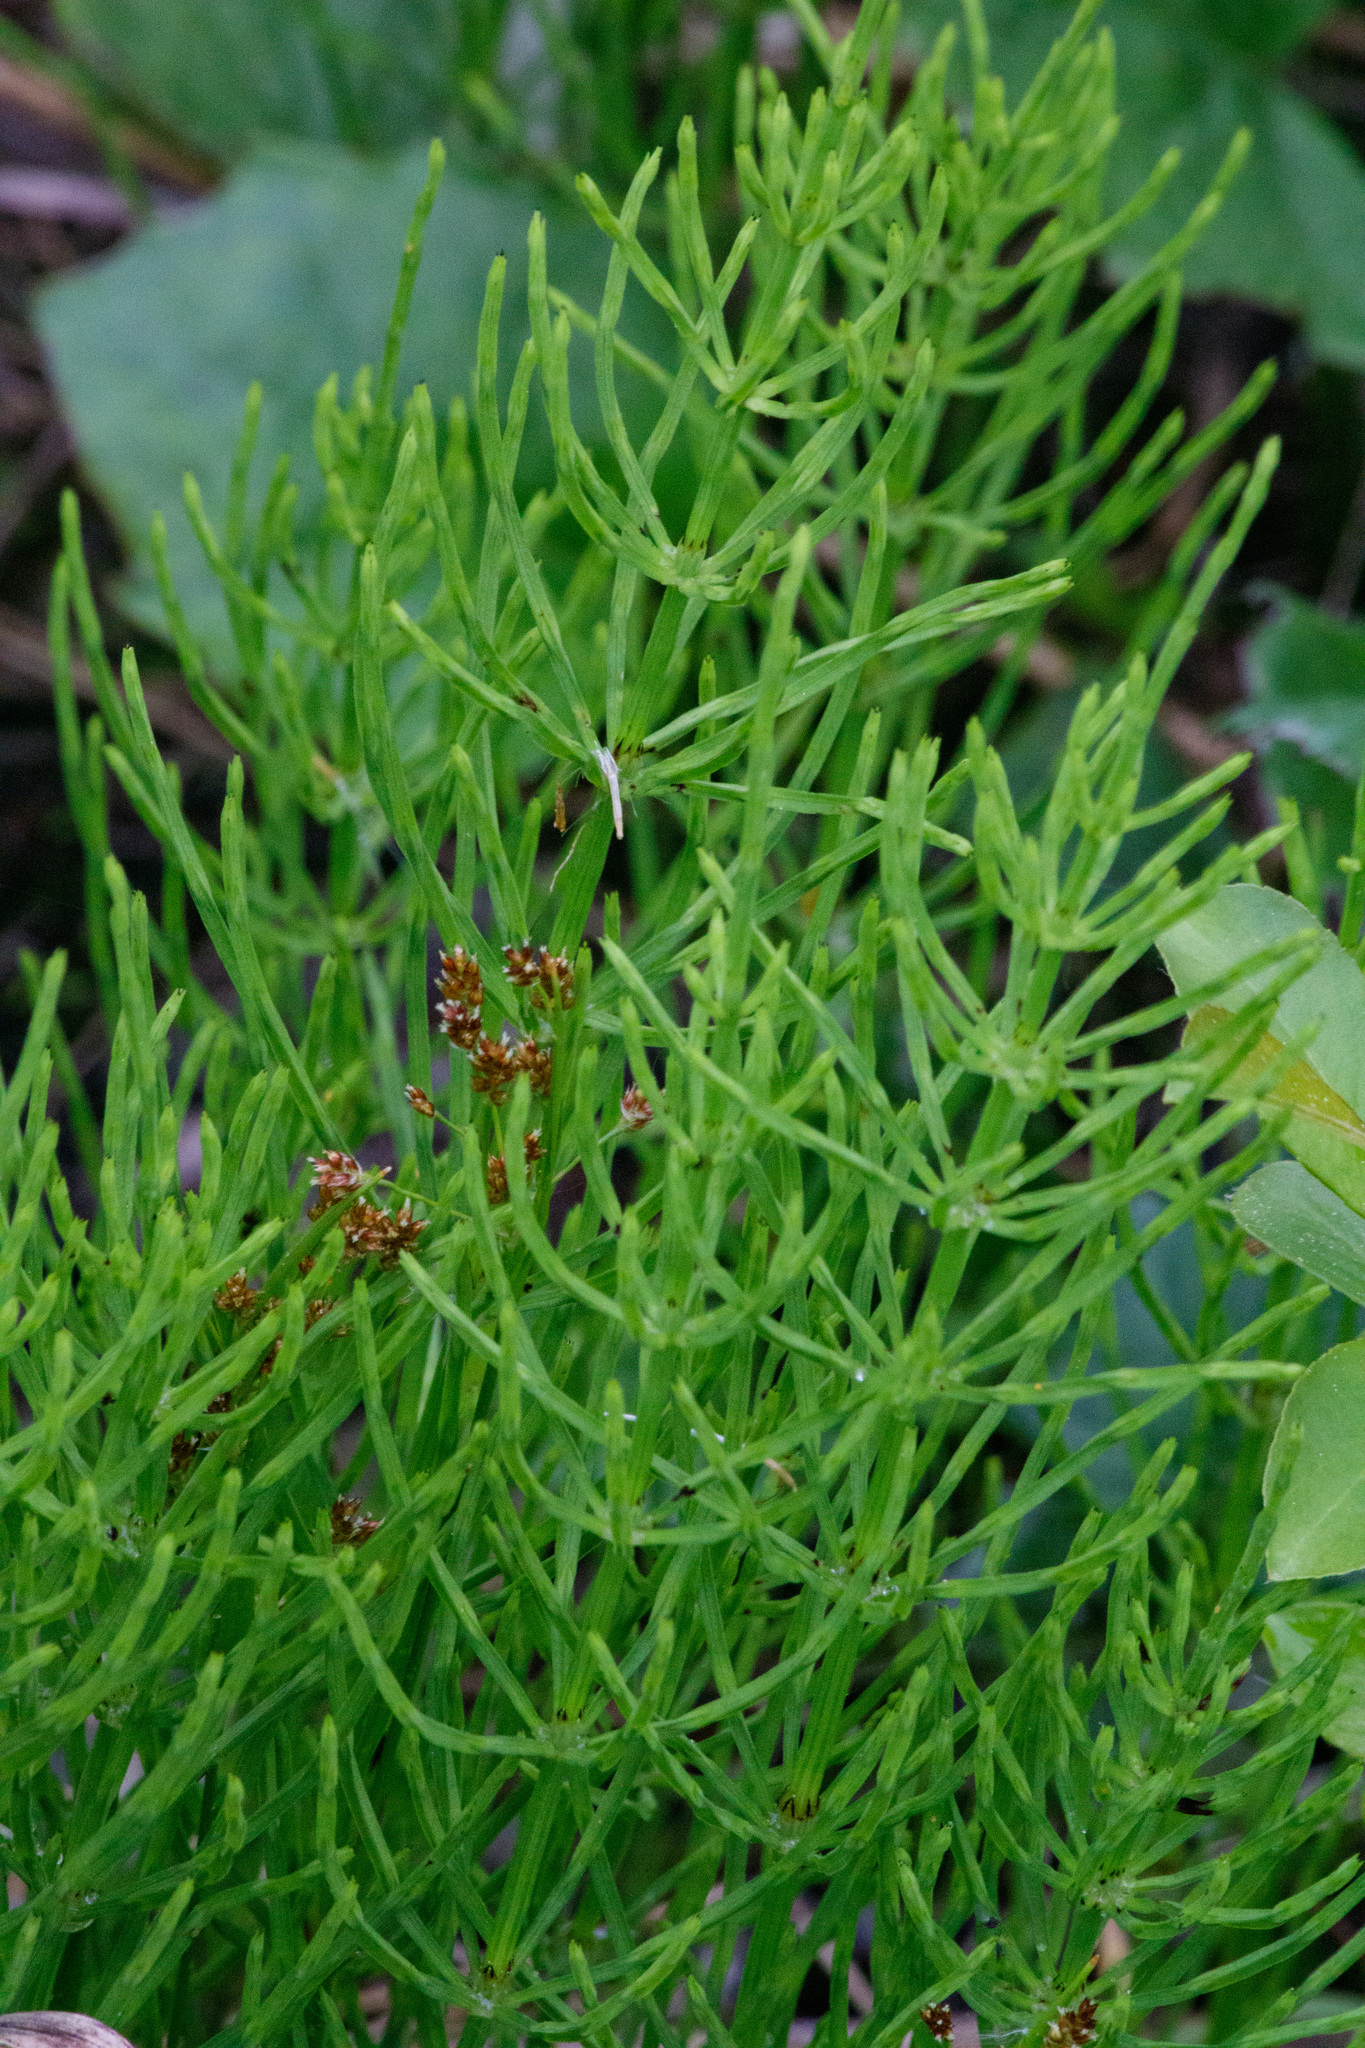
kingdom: Plantae
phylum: Tracheophyta
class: Polypodiopsida
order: Equisetales
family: Equisetaceae
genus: Equisetum
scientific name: Equisetum arvense
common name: Field horsetail
